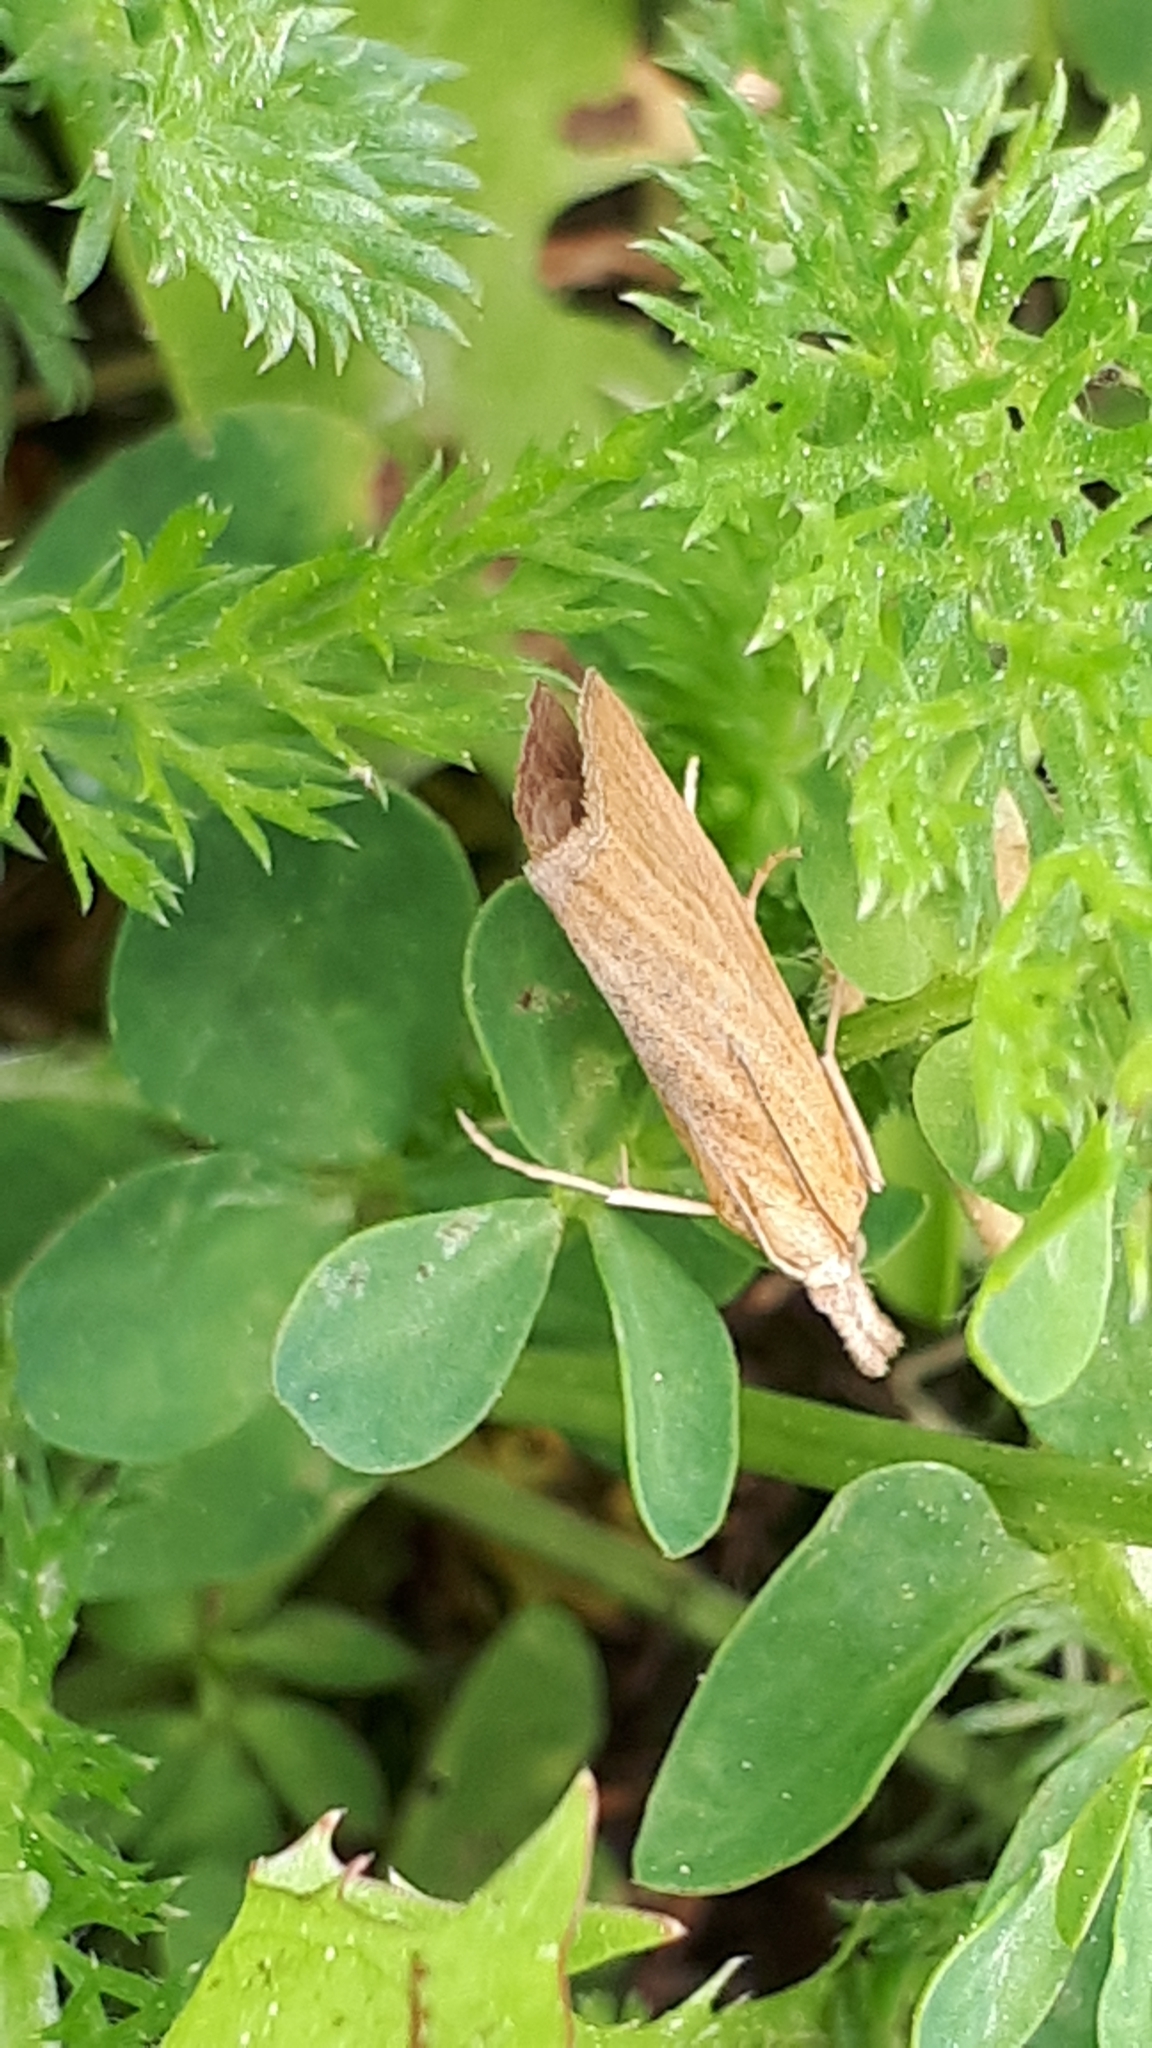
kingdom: Animalia
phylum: Arthropoda
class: Insecta
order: Lepidoptera
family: Crambidae
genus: Pediasia
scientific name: Pediasia luteella
